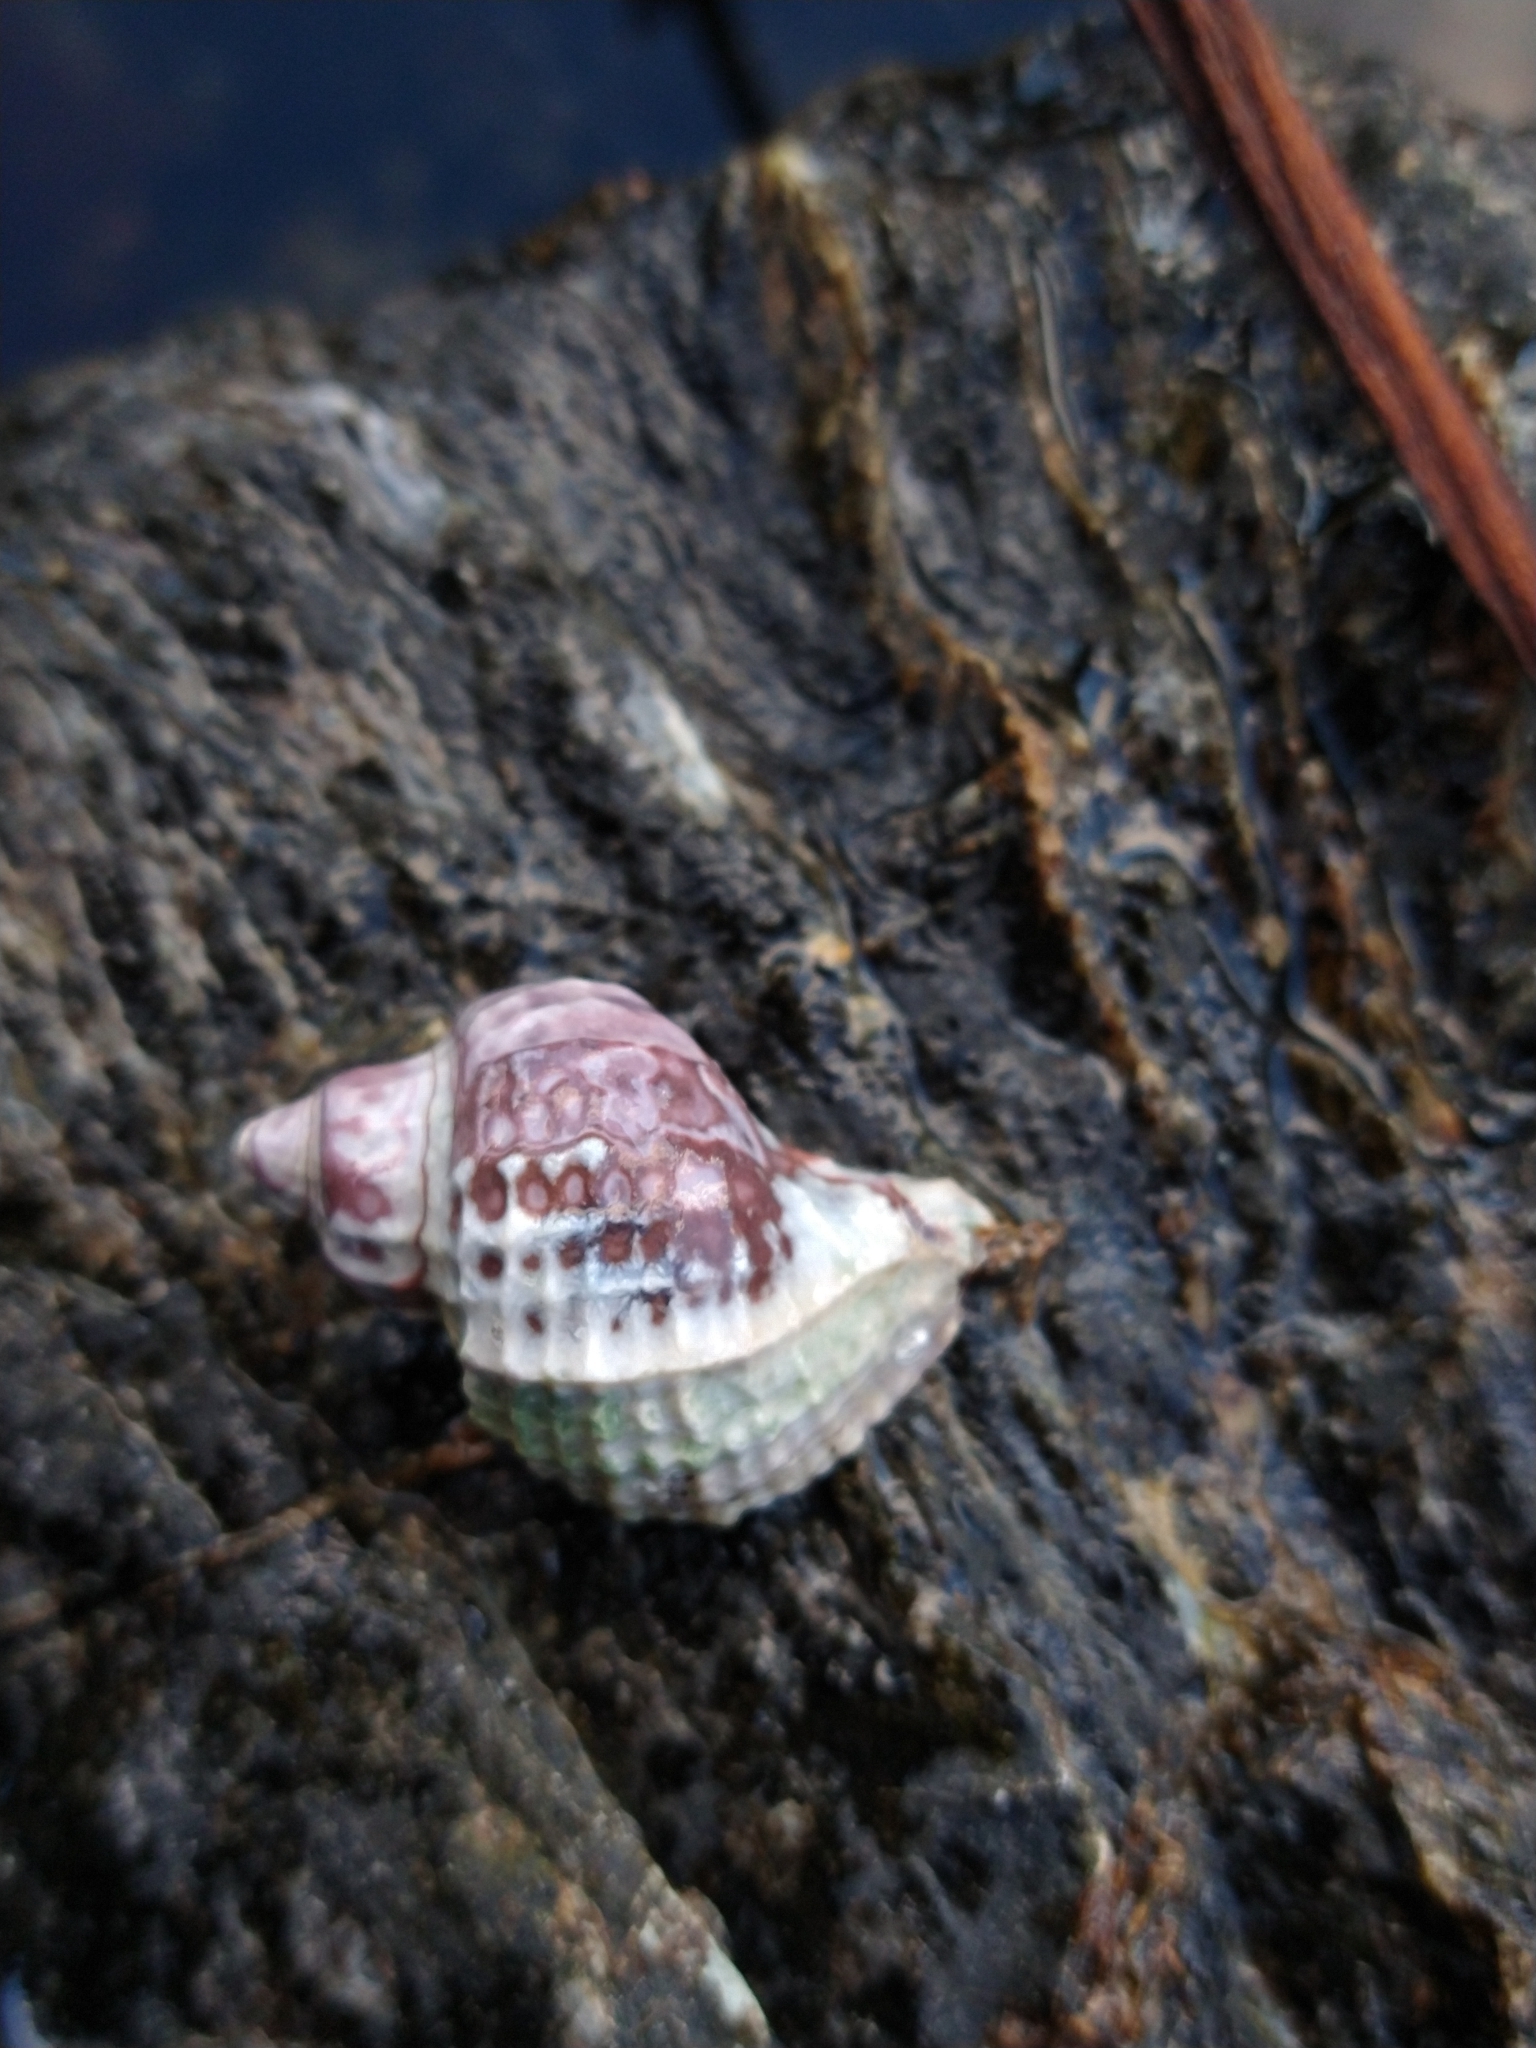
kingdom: Animalia
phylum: Mollusca
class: Gastropoda
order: Neogastropoda
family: Muricidae
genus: Trophon
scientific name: Trophon geversianus
